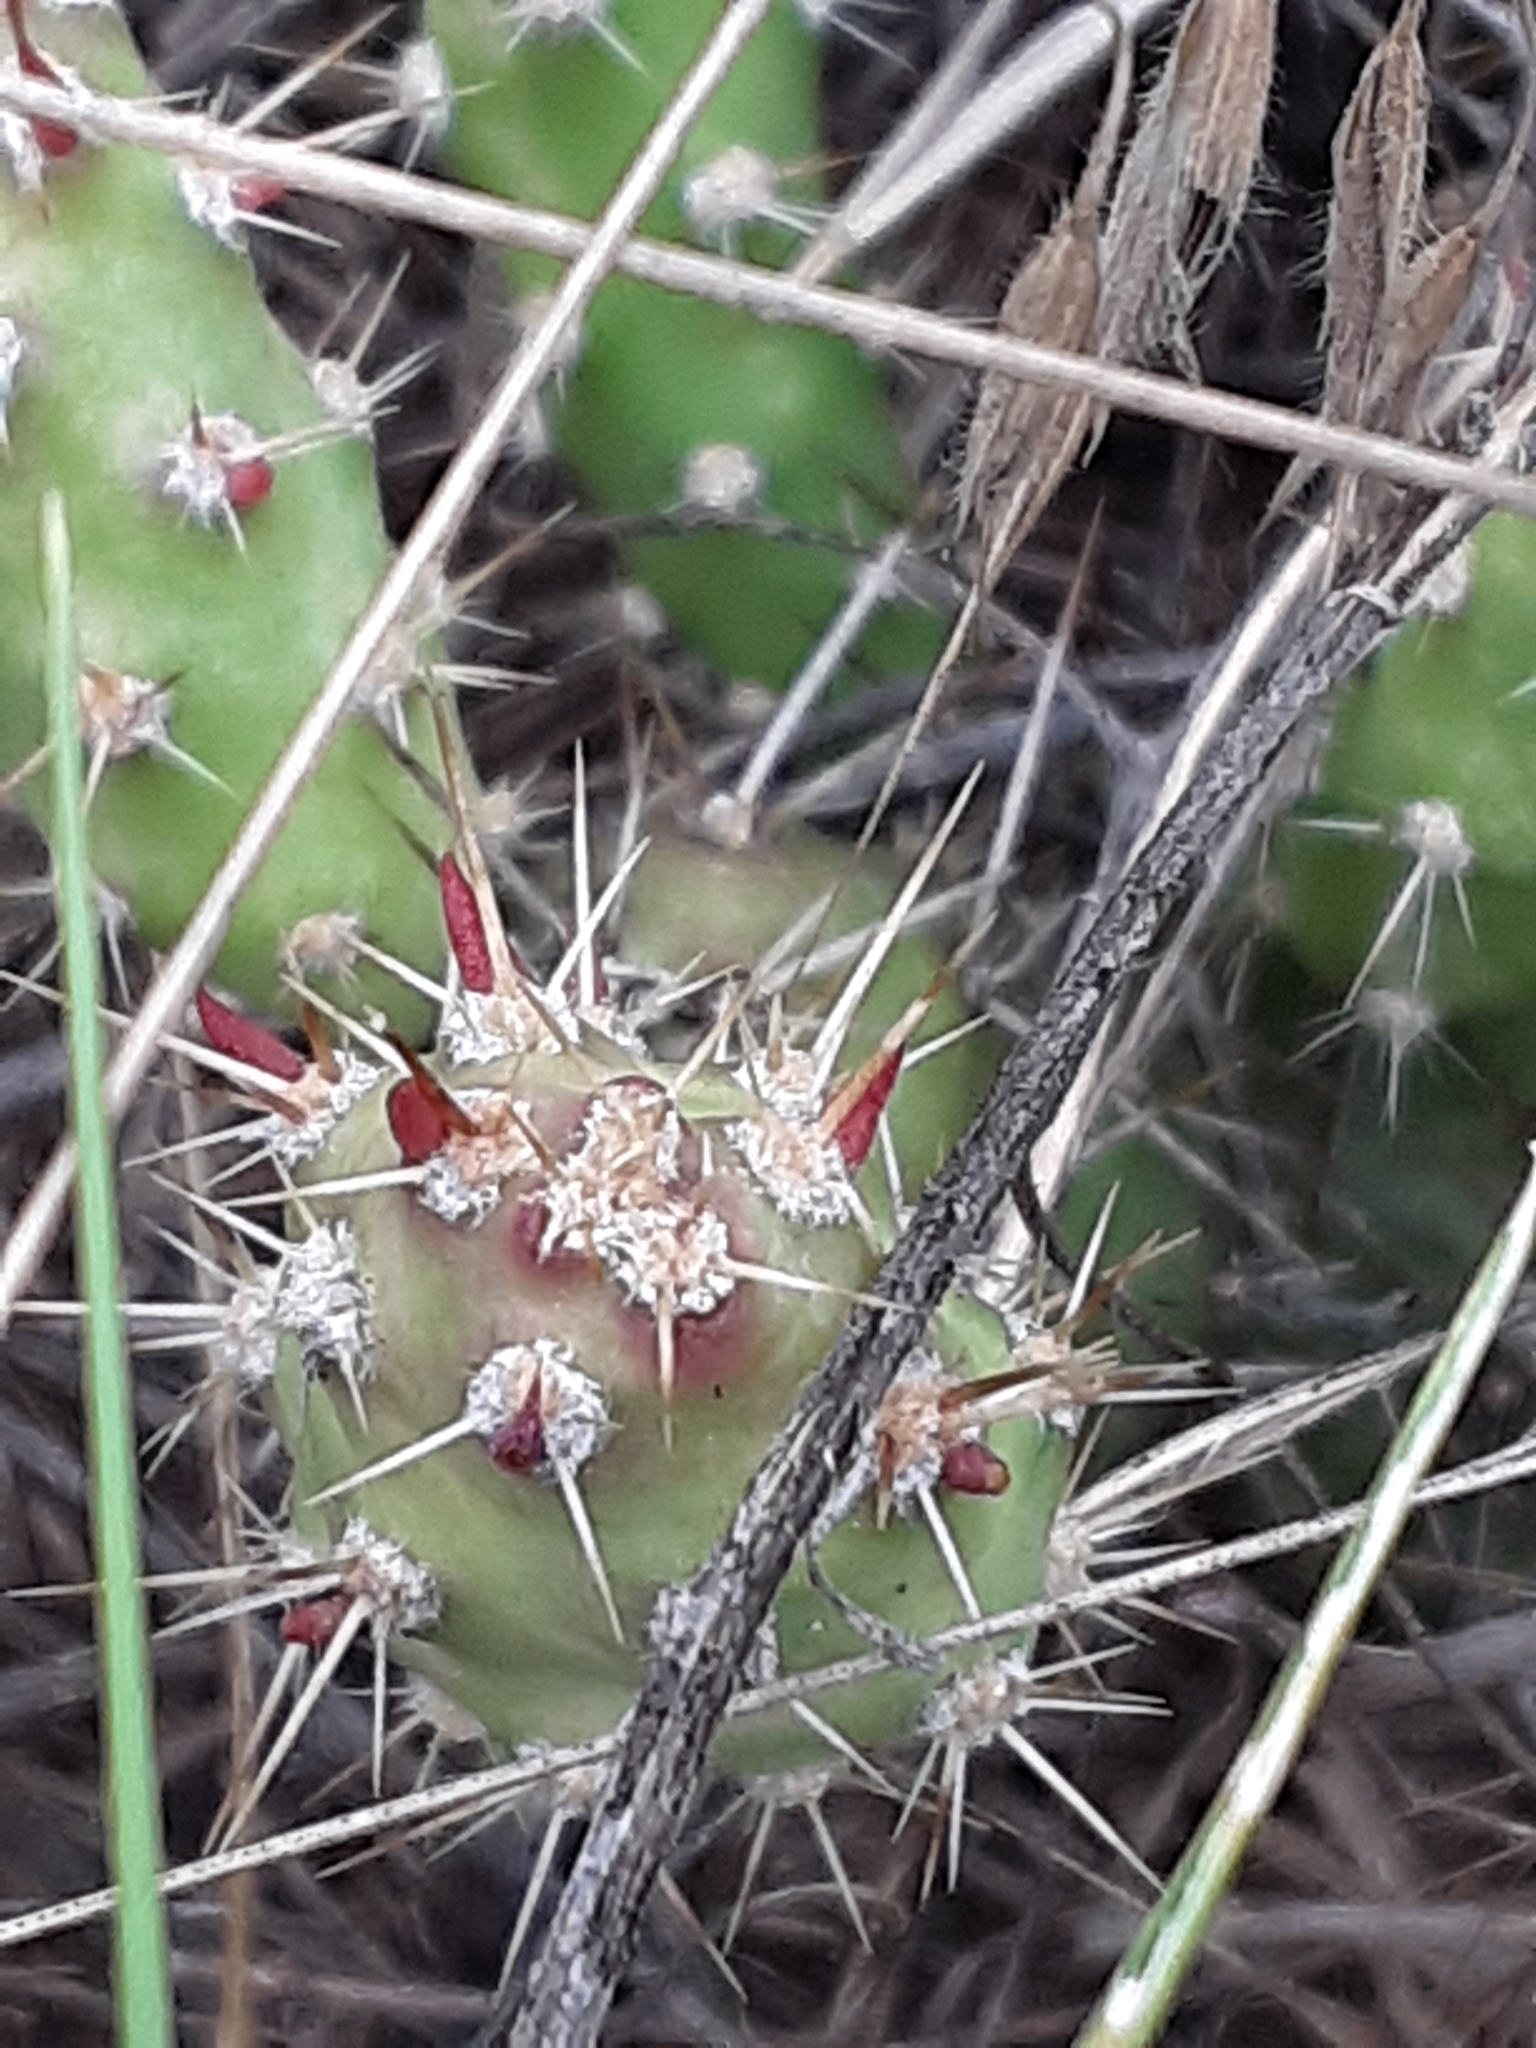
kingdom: Plantae
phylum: Tracheophyta
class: Magnoliopsida
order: Caryophyllales
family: Cactaceae
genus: Opuntia
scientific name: Opuntia fragilis
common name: Brittle cactus
